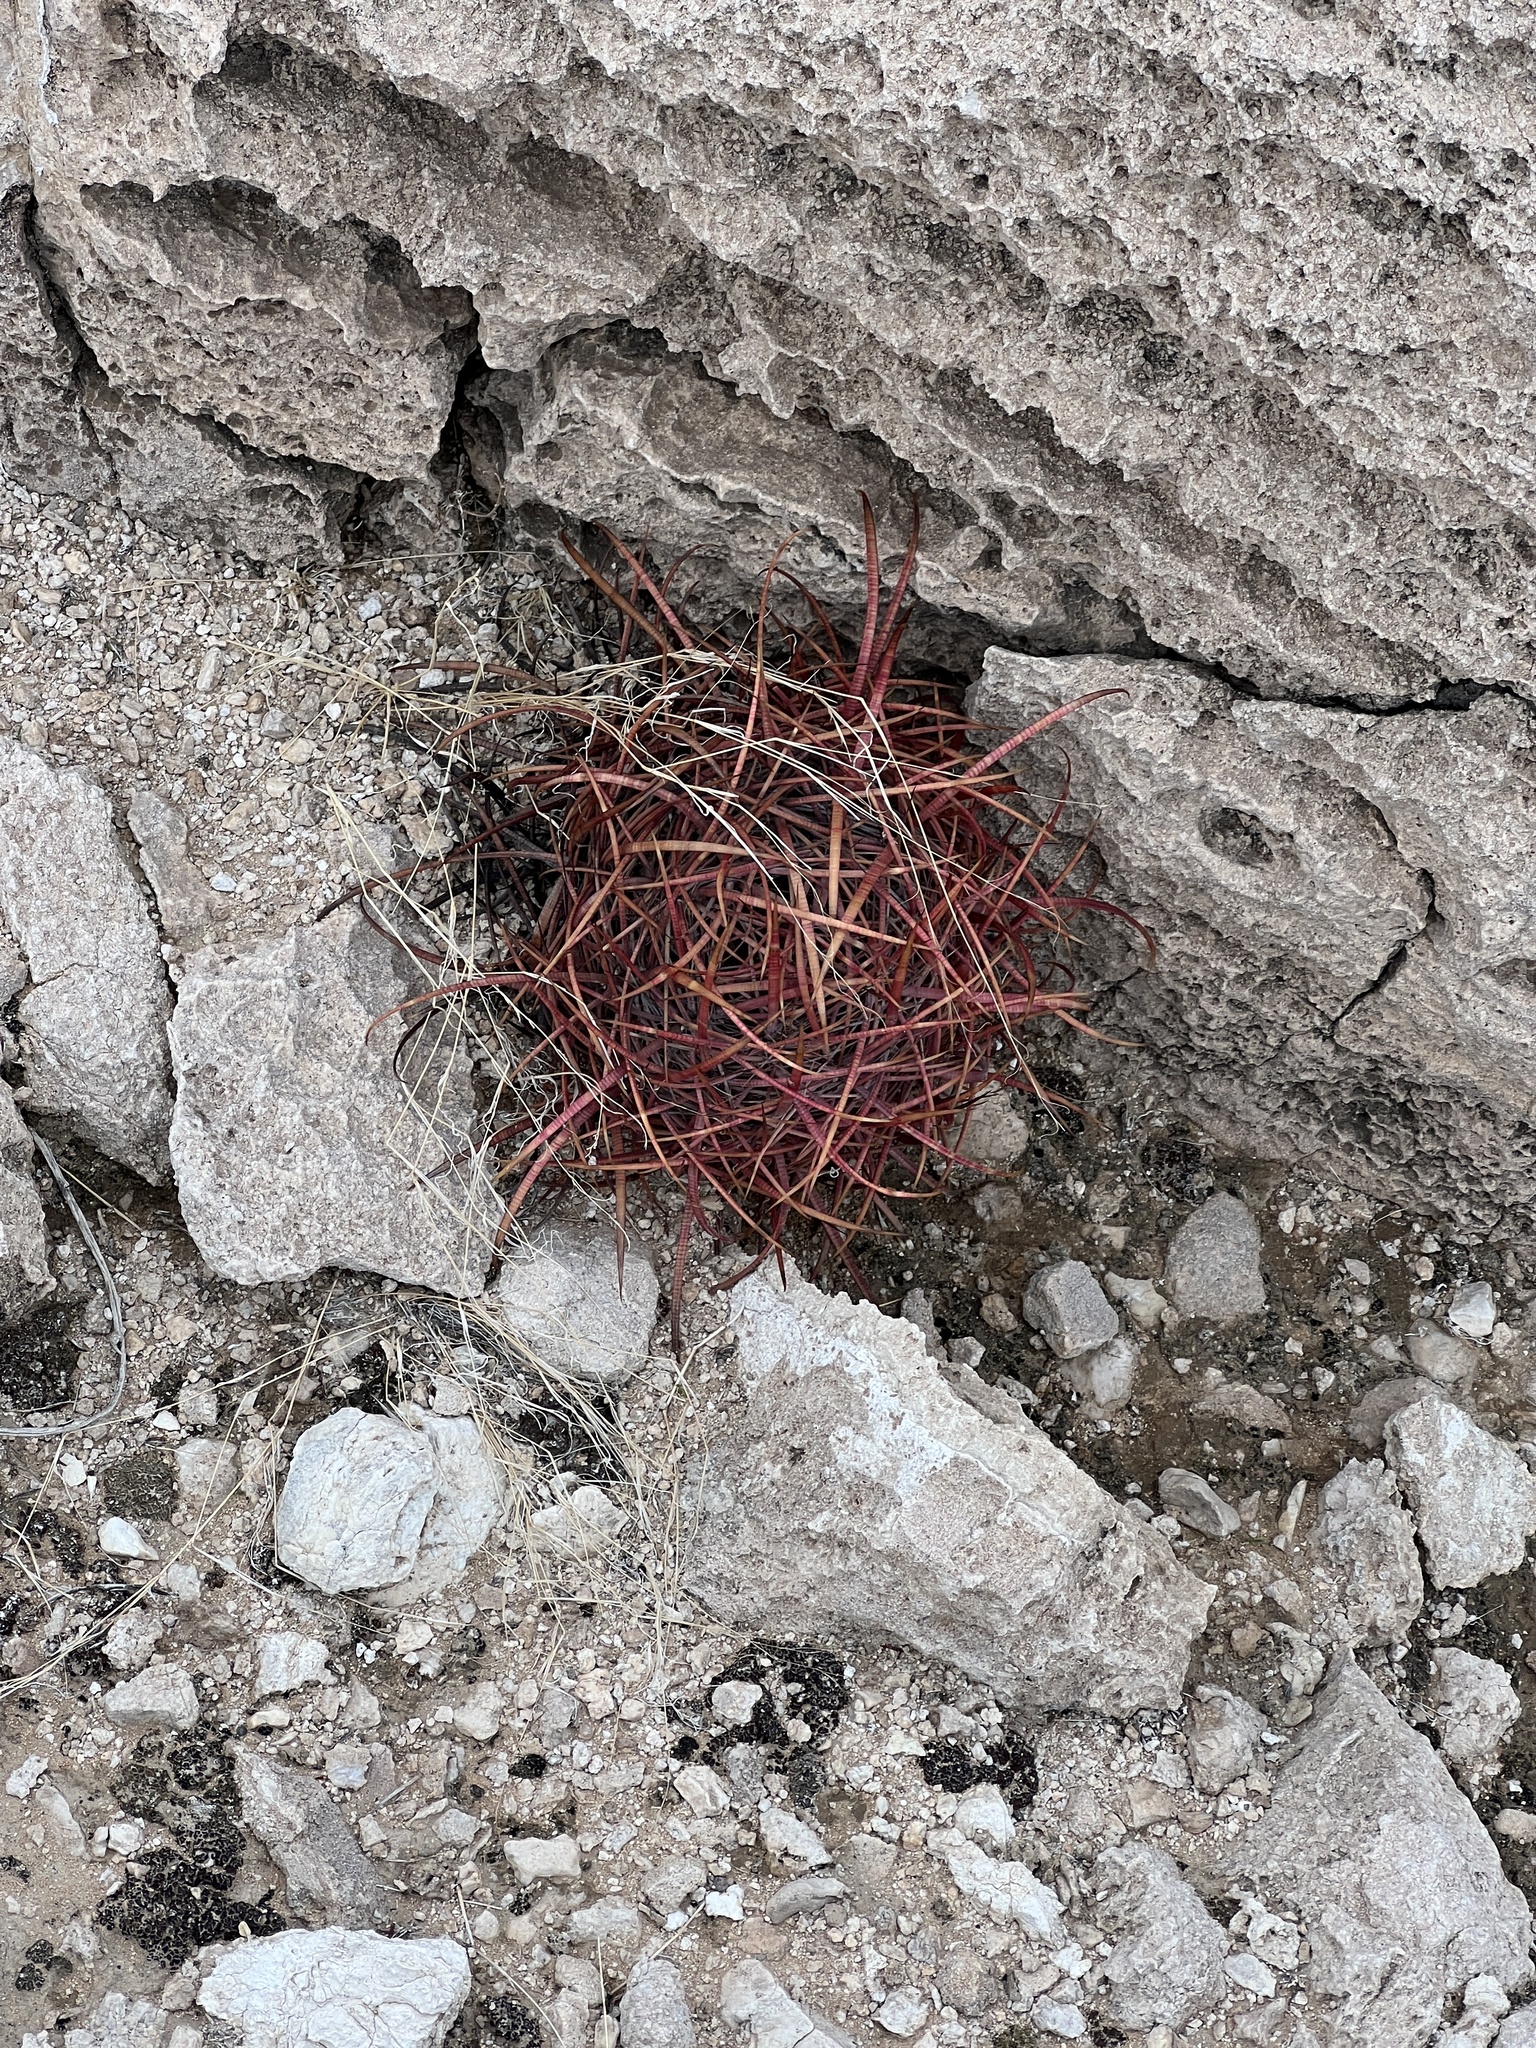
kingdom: Plantae
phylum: Tracheophyta
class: Magnoliopsida
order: Caryophyllales
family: Cactaceae
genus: Ferocactus
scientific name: Ferocactus cylindraceus
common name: California barrel cactus
